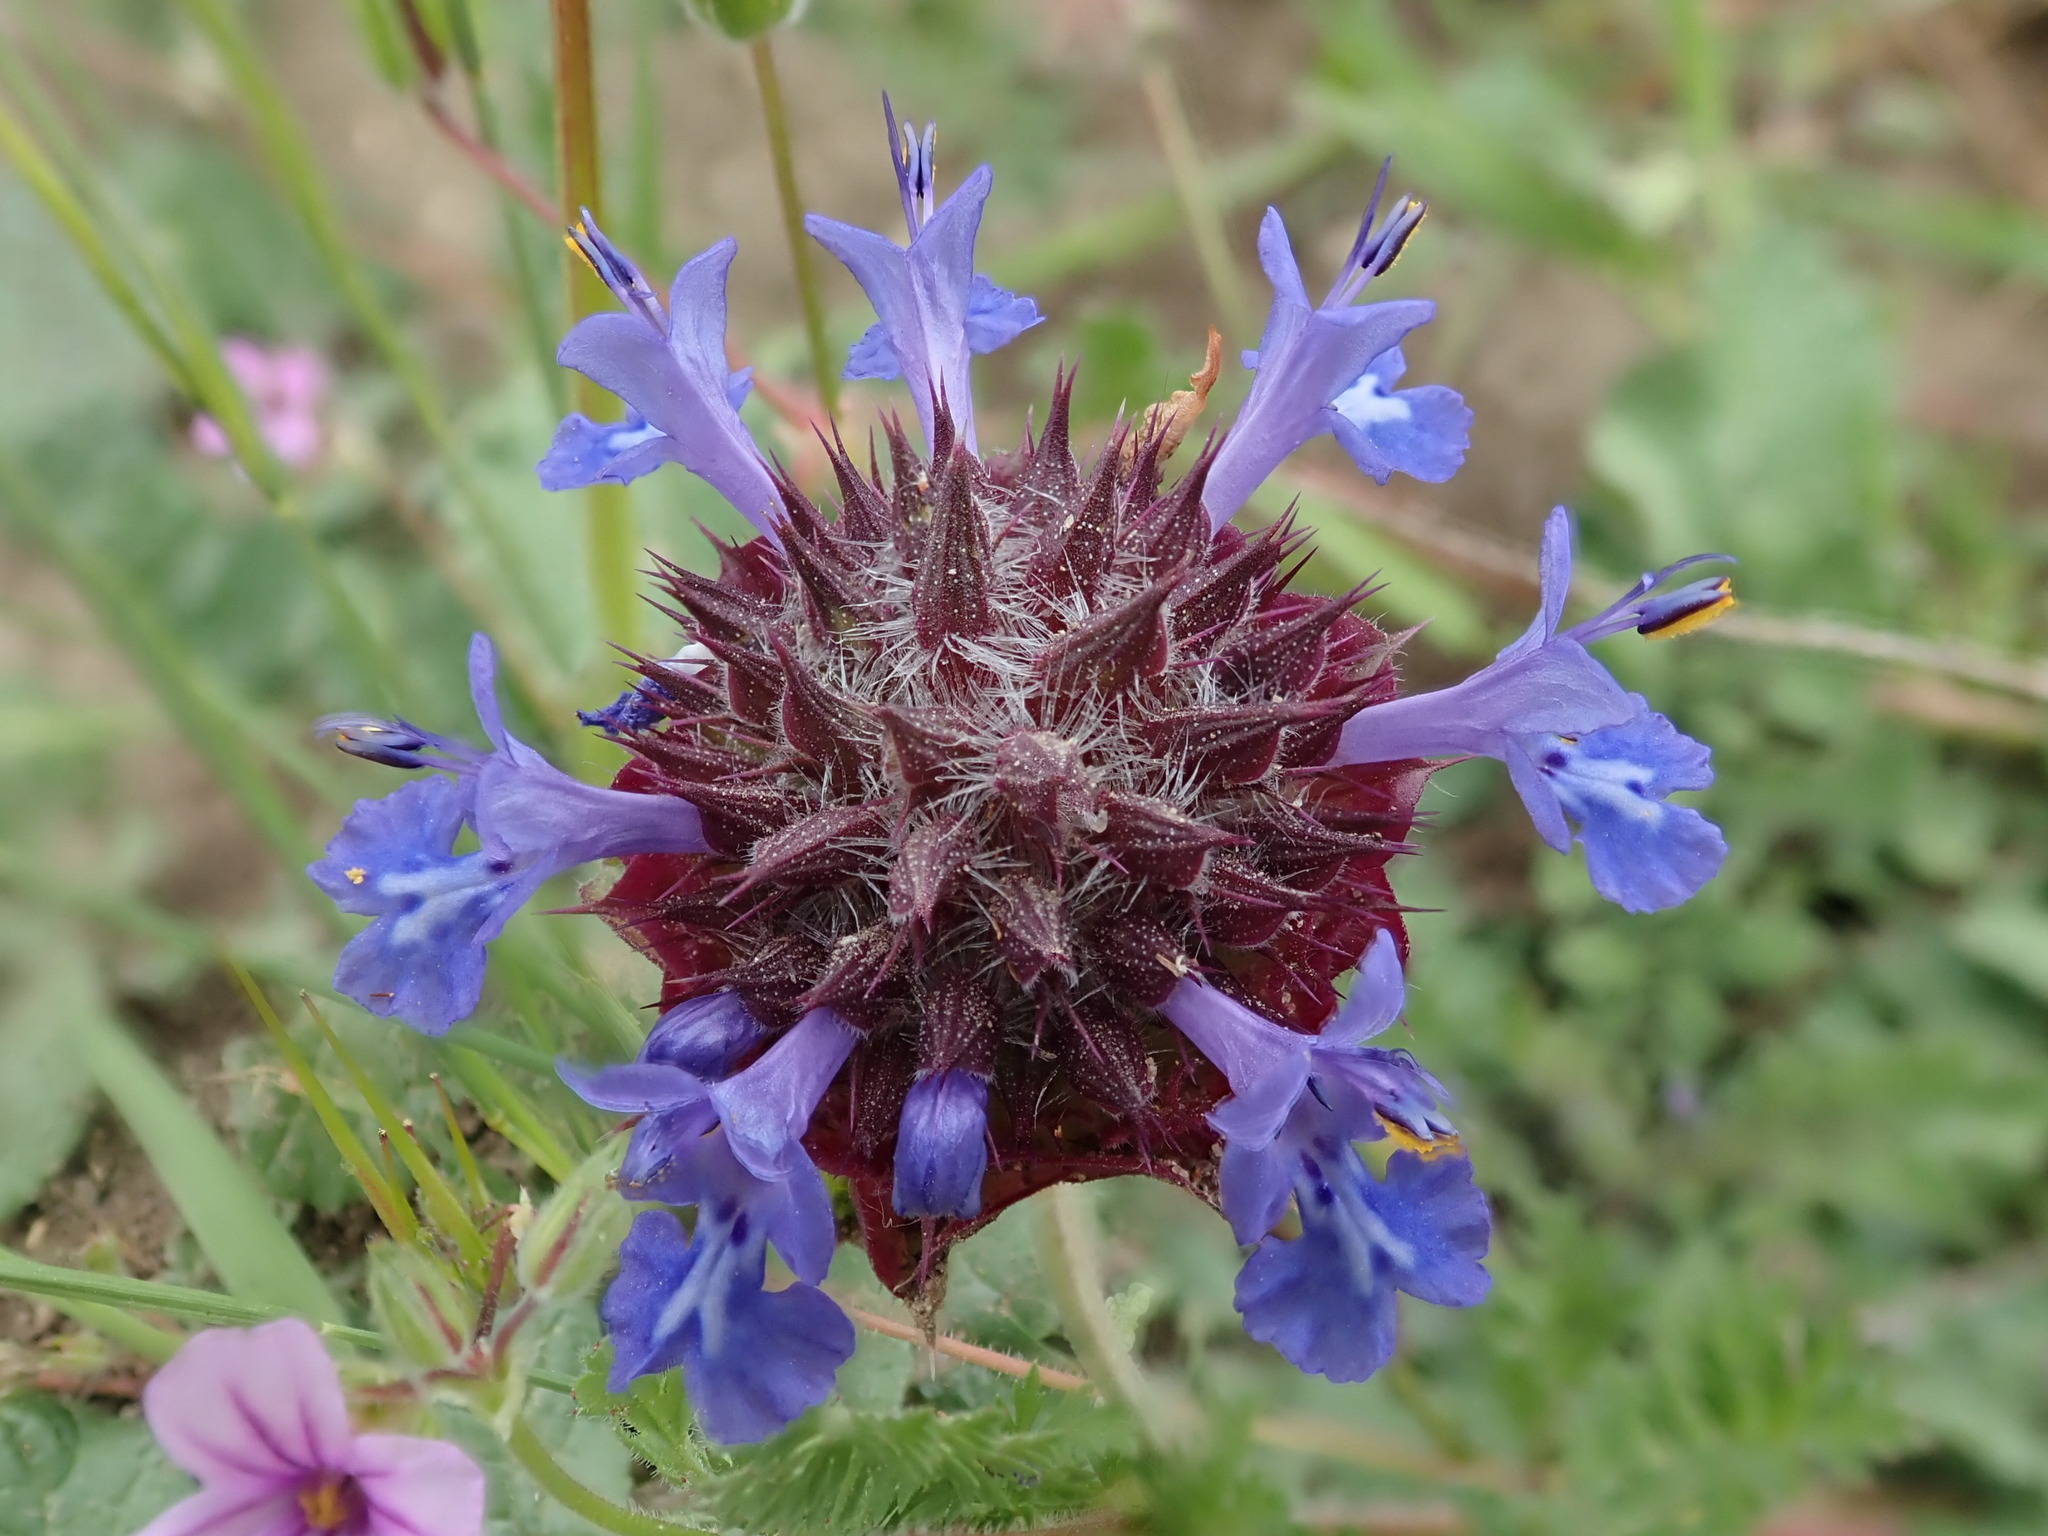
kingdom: Plantae
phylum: Tracheophyta
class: Magnoliopsida
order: Lamiales
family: Lamiaceae
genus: Salvia
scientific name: Salvia columbariae
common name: Chia
